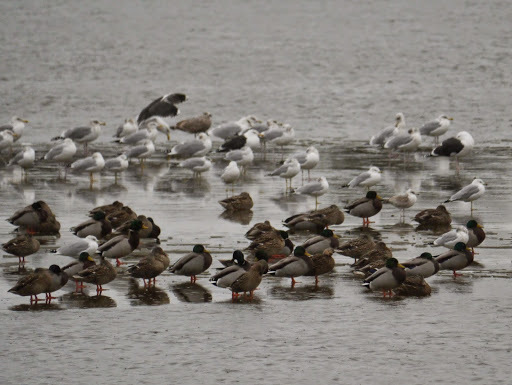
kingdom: Animalia
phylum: Chordata
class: Aves
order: Anseriformes
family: Anatidae
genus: Anas
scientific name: Anas platyrhynchos
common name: Mallard
